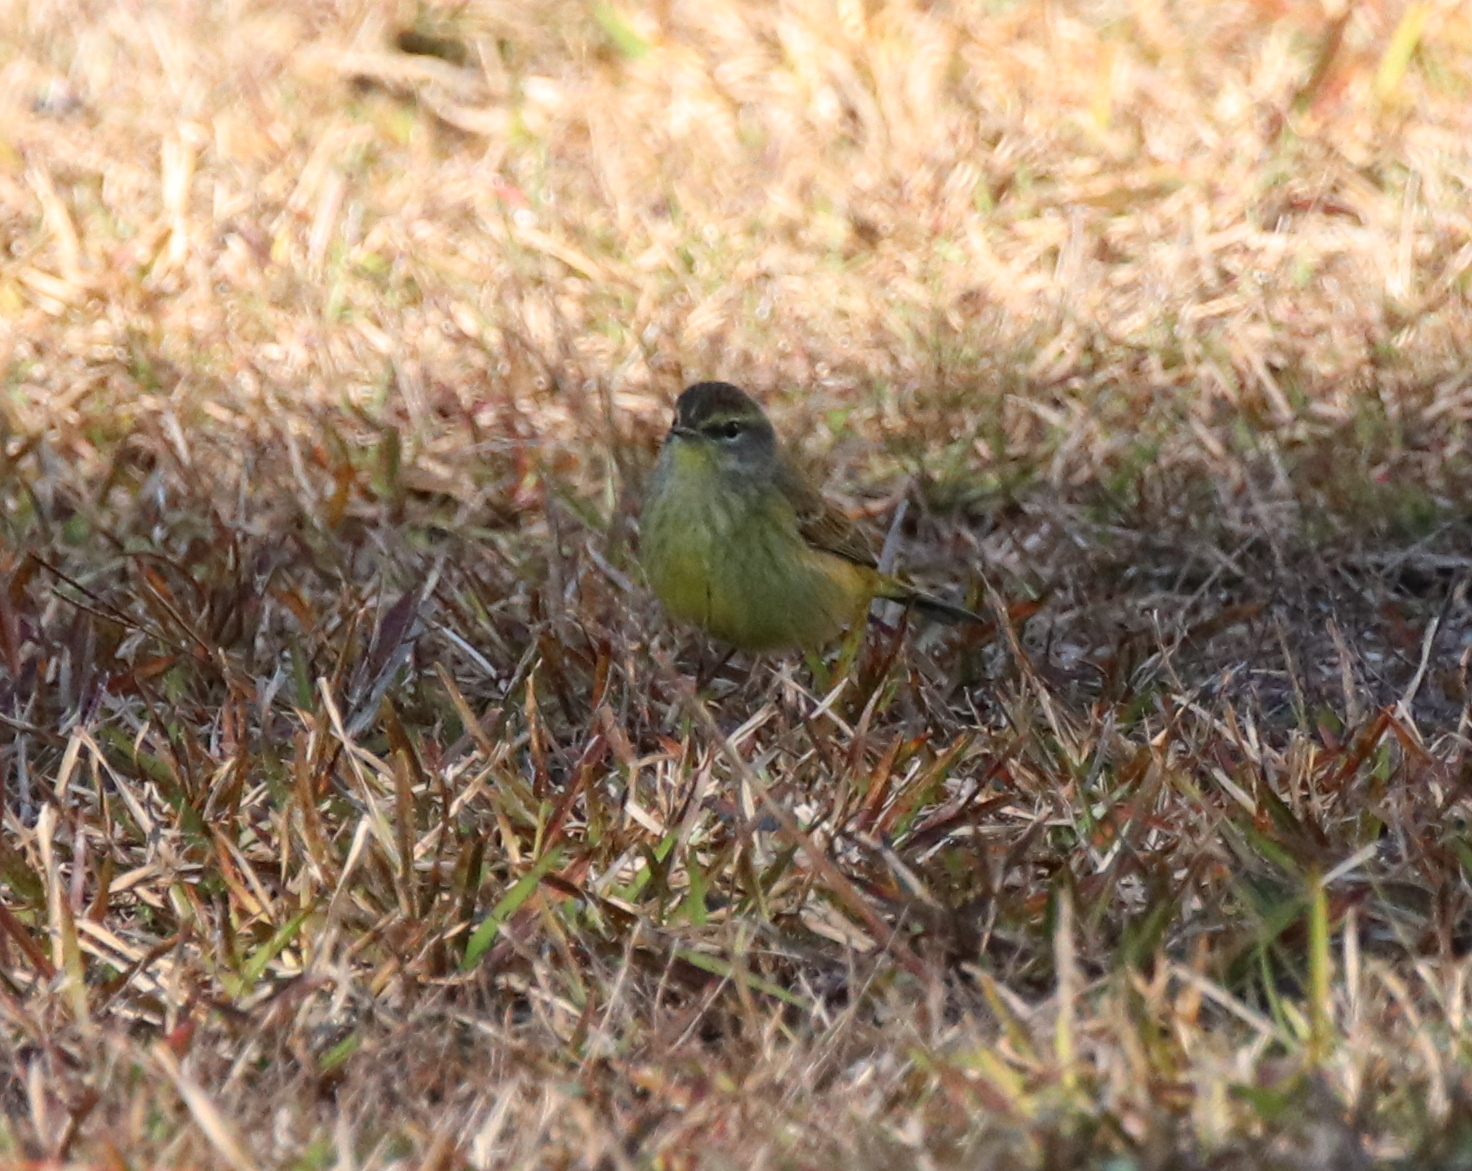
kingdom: Animalia
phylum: Chordata
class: Aves
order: Passeriformes
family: Parulidae
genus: Setophaga
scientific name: Setophaga palmarum
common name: Palm warbler
